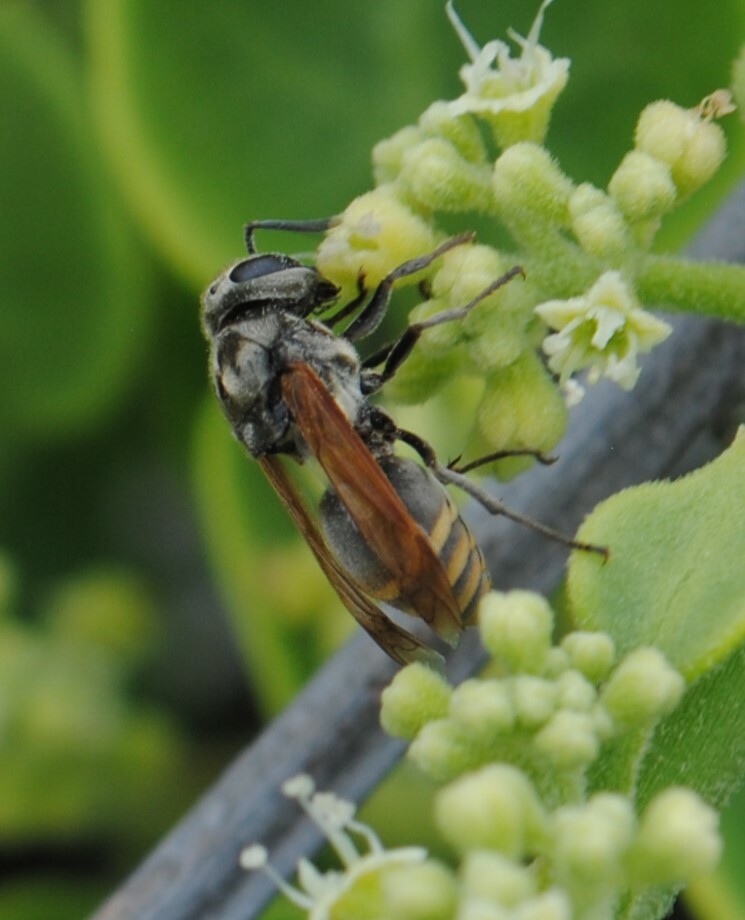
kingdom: Animalia
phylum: Arthropoda
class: Insecta
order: Hymenoptera
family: Vespidae
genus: Brachygastra
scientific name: Brachygastra lecheguana
